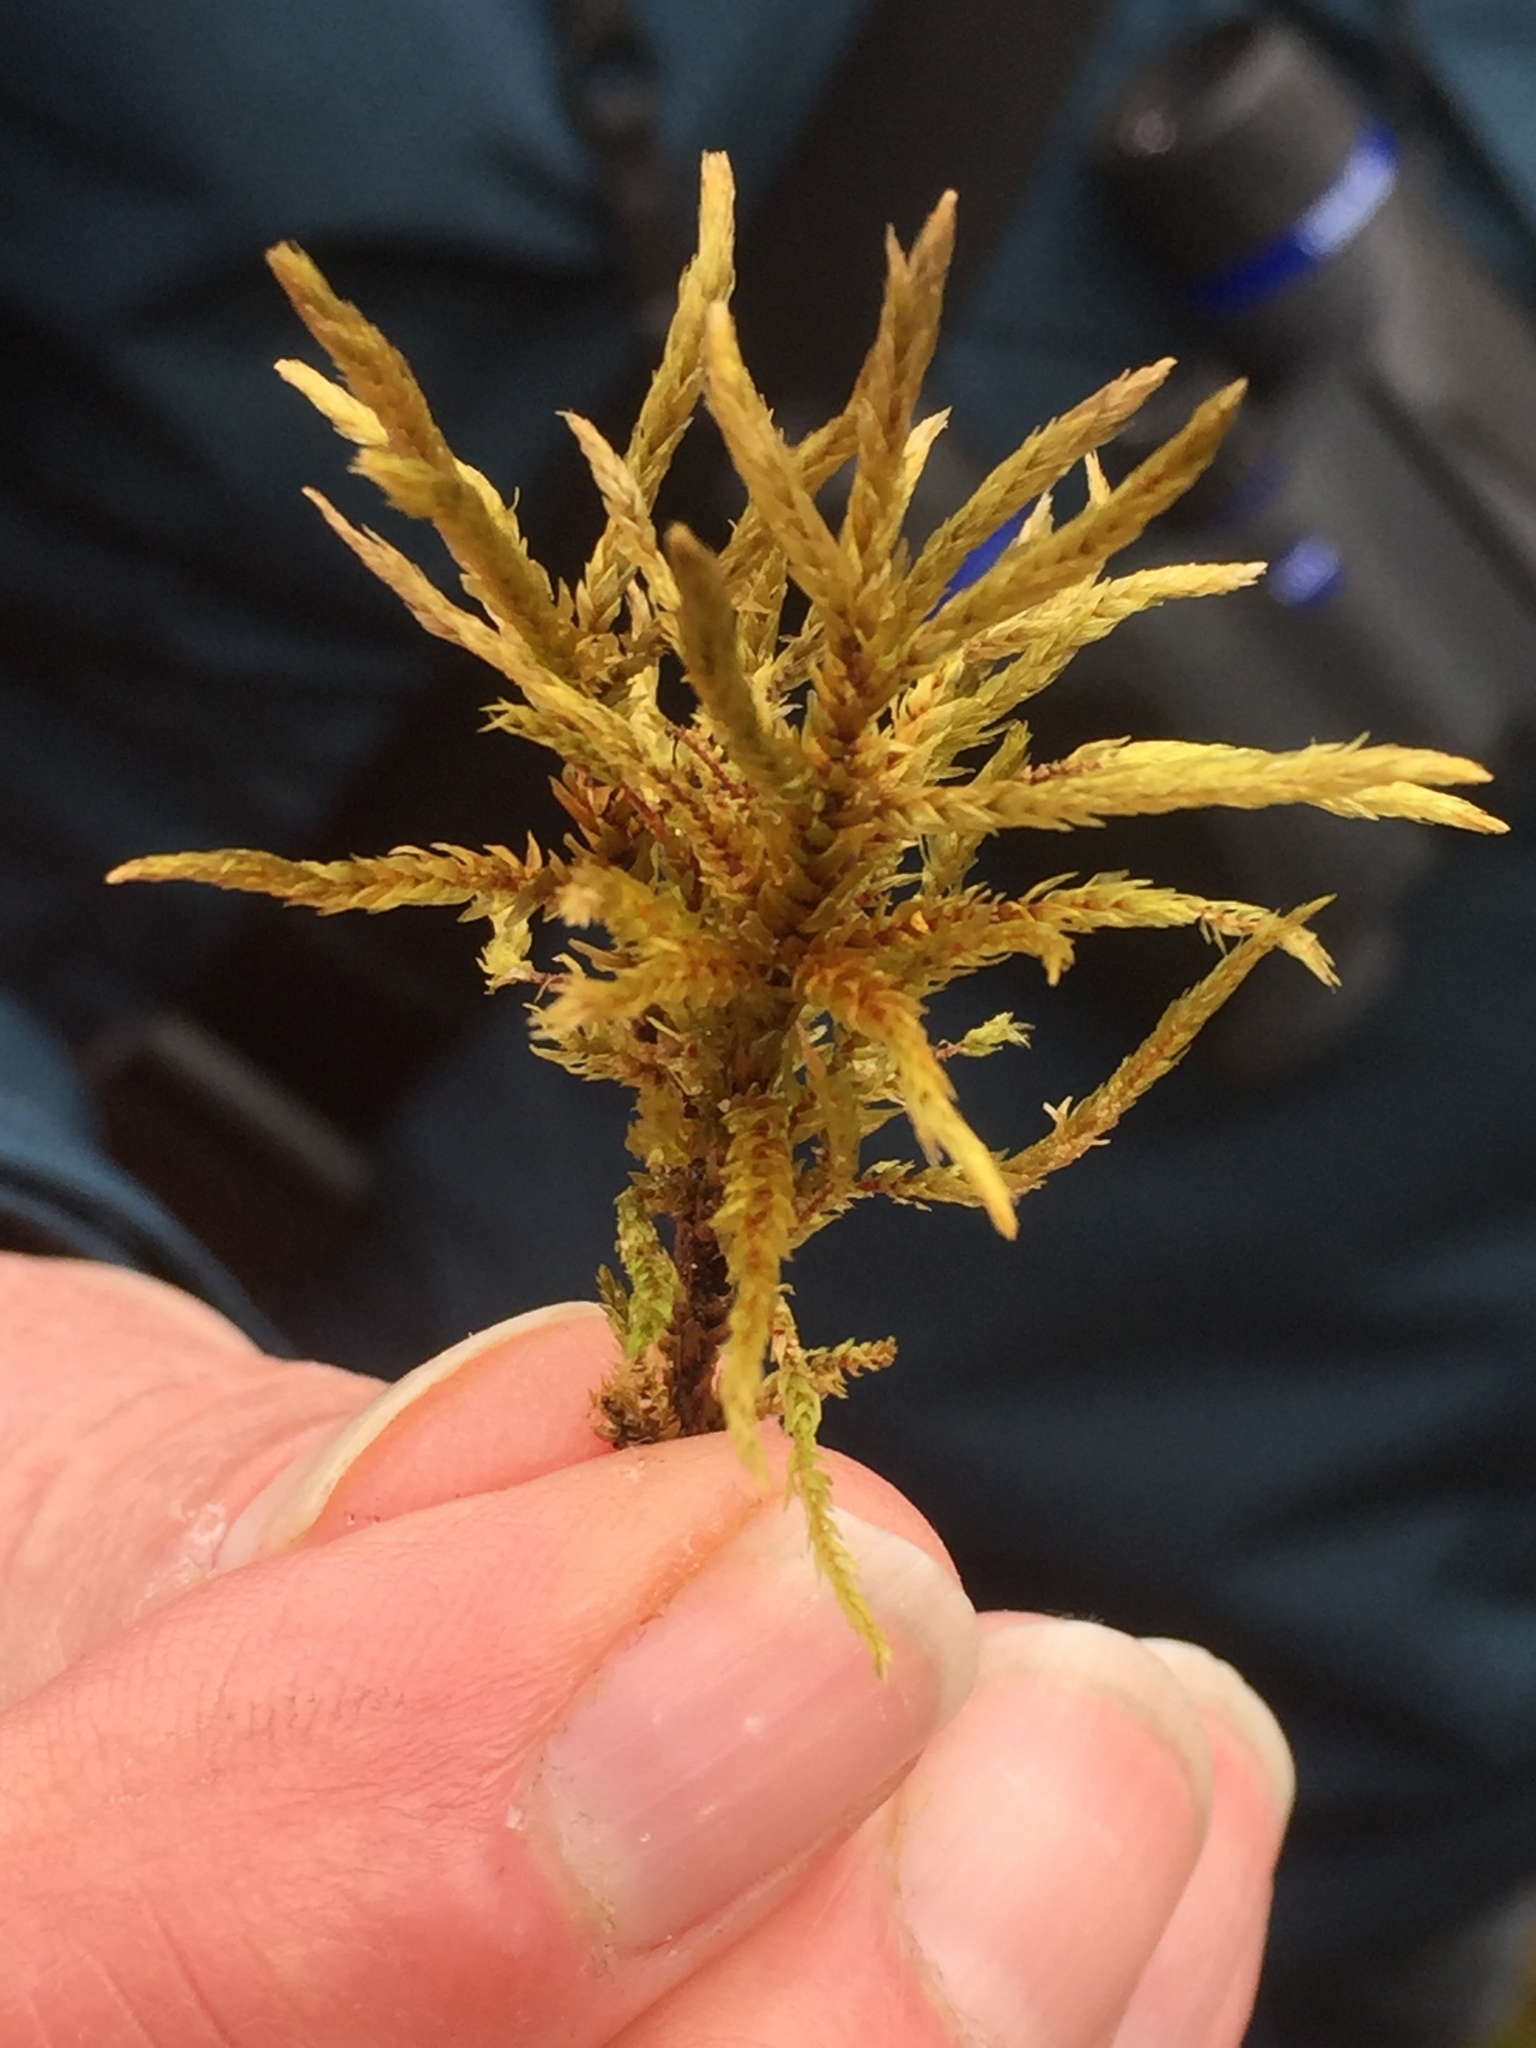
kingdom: Plantae
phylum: Bryophyta
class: Bryopsida
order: Hypnales
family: Climaciaceae
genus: Climacium
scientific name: Climacium dendroides
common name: Northern tree moss
